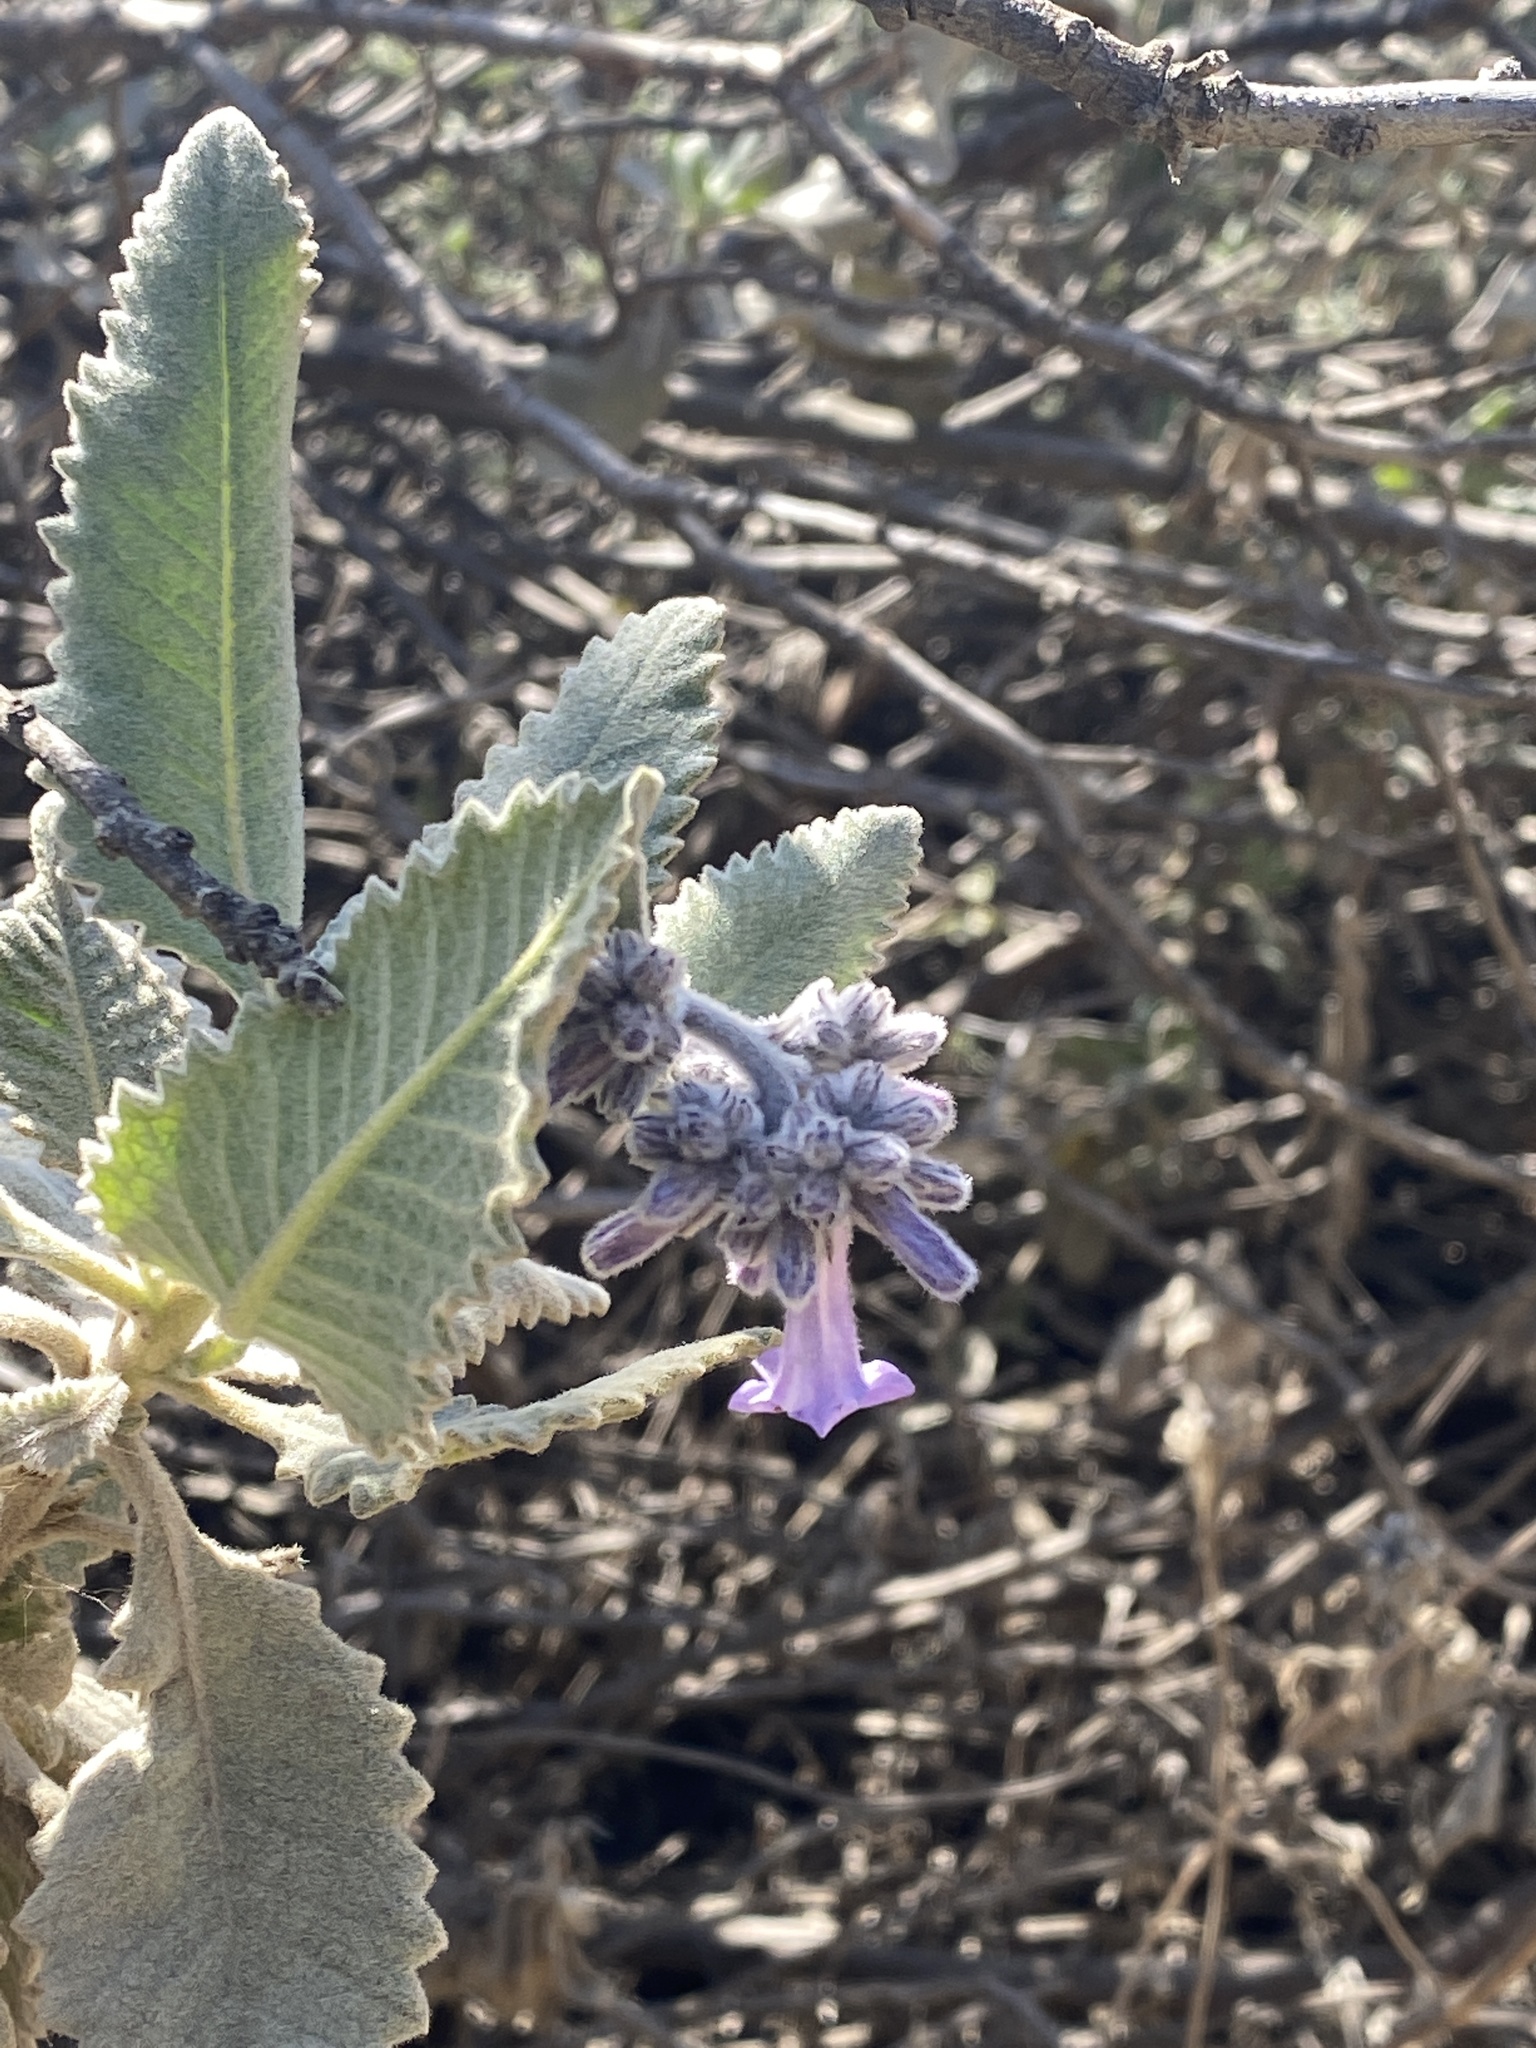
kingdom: Plantae
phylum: Tracheophyta
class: Magnoliopsida
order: Boraginales
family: Namaceae
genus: Eriodictyon
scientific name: Eriodictyon crassifolium
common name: Thick-leaf yerba-santa
